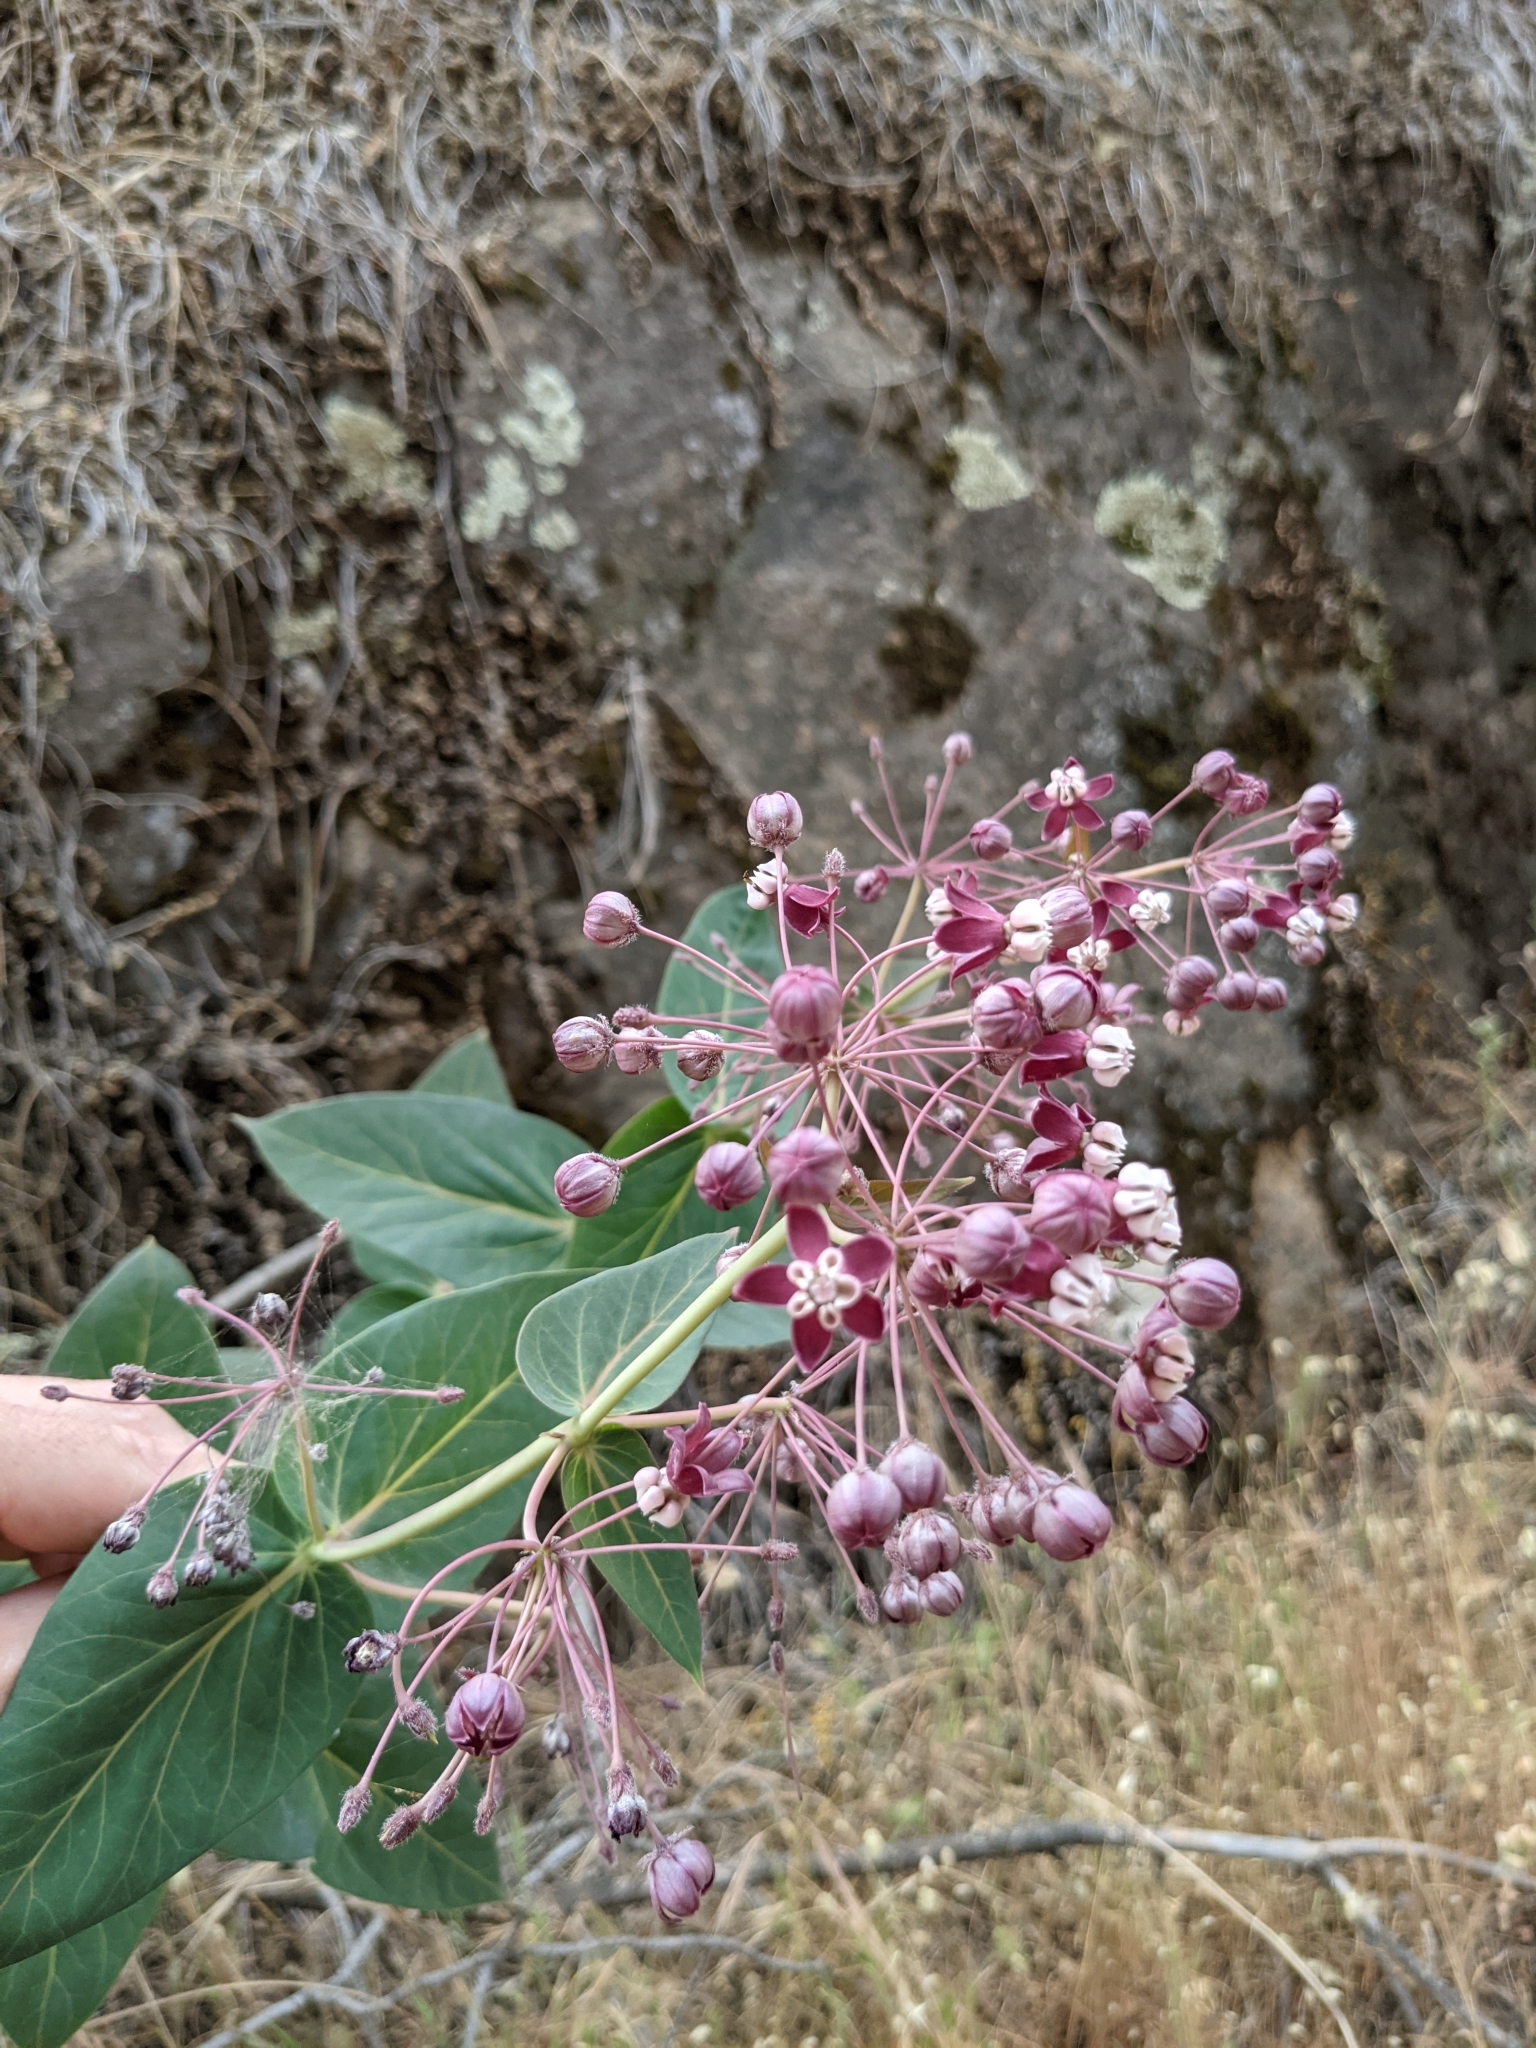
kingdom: Plantae
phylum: Tracheophyta
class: Magnoliopsida
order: Gentianales
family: Apocynaceae
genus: Asclepias
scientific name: Asclepias cordifolia
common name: Purple milkweed
